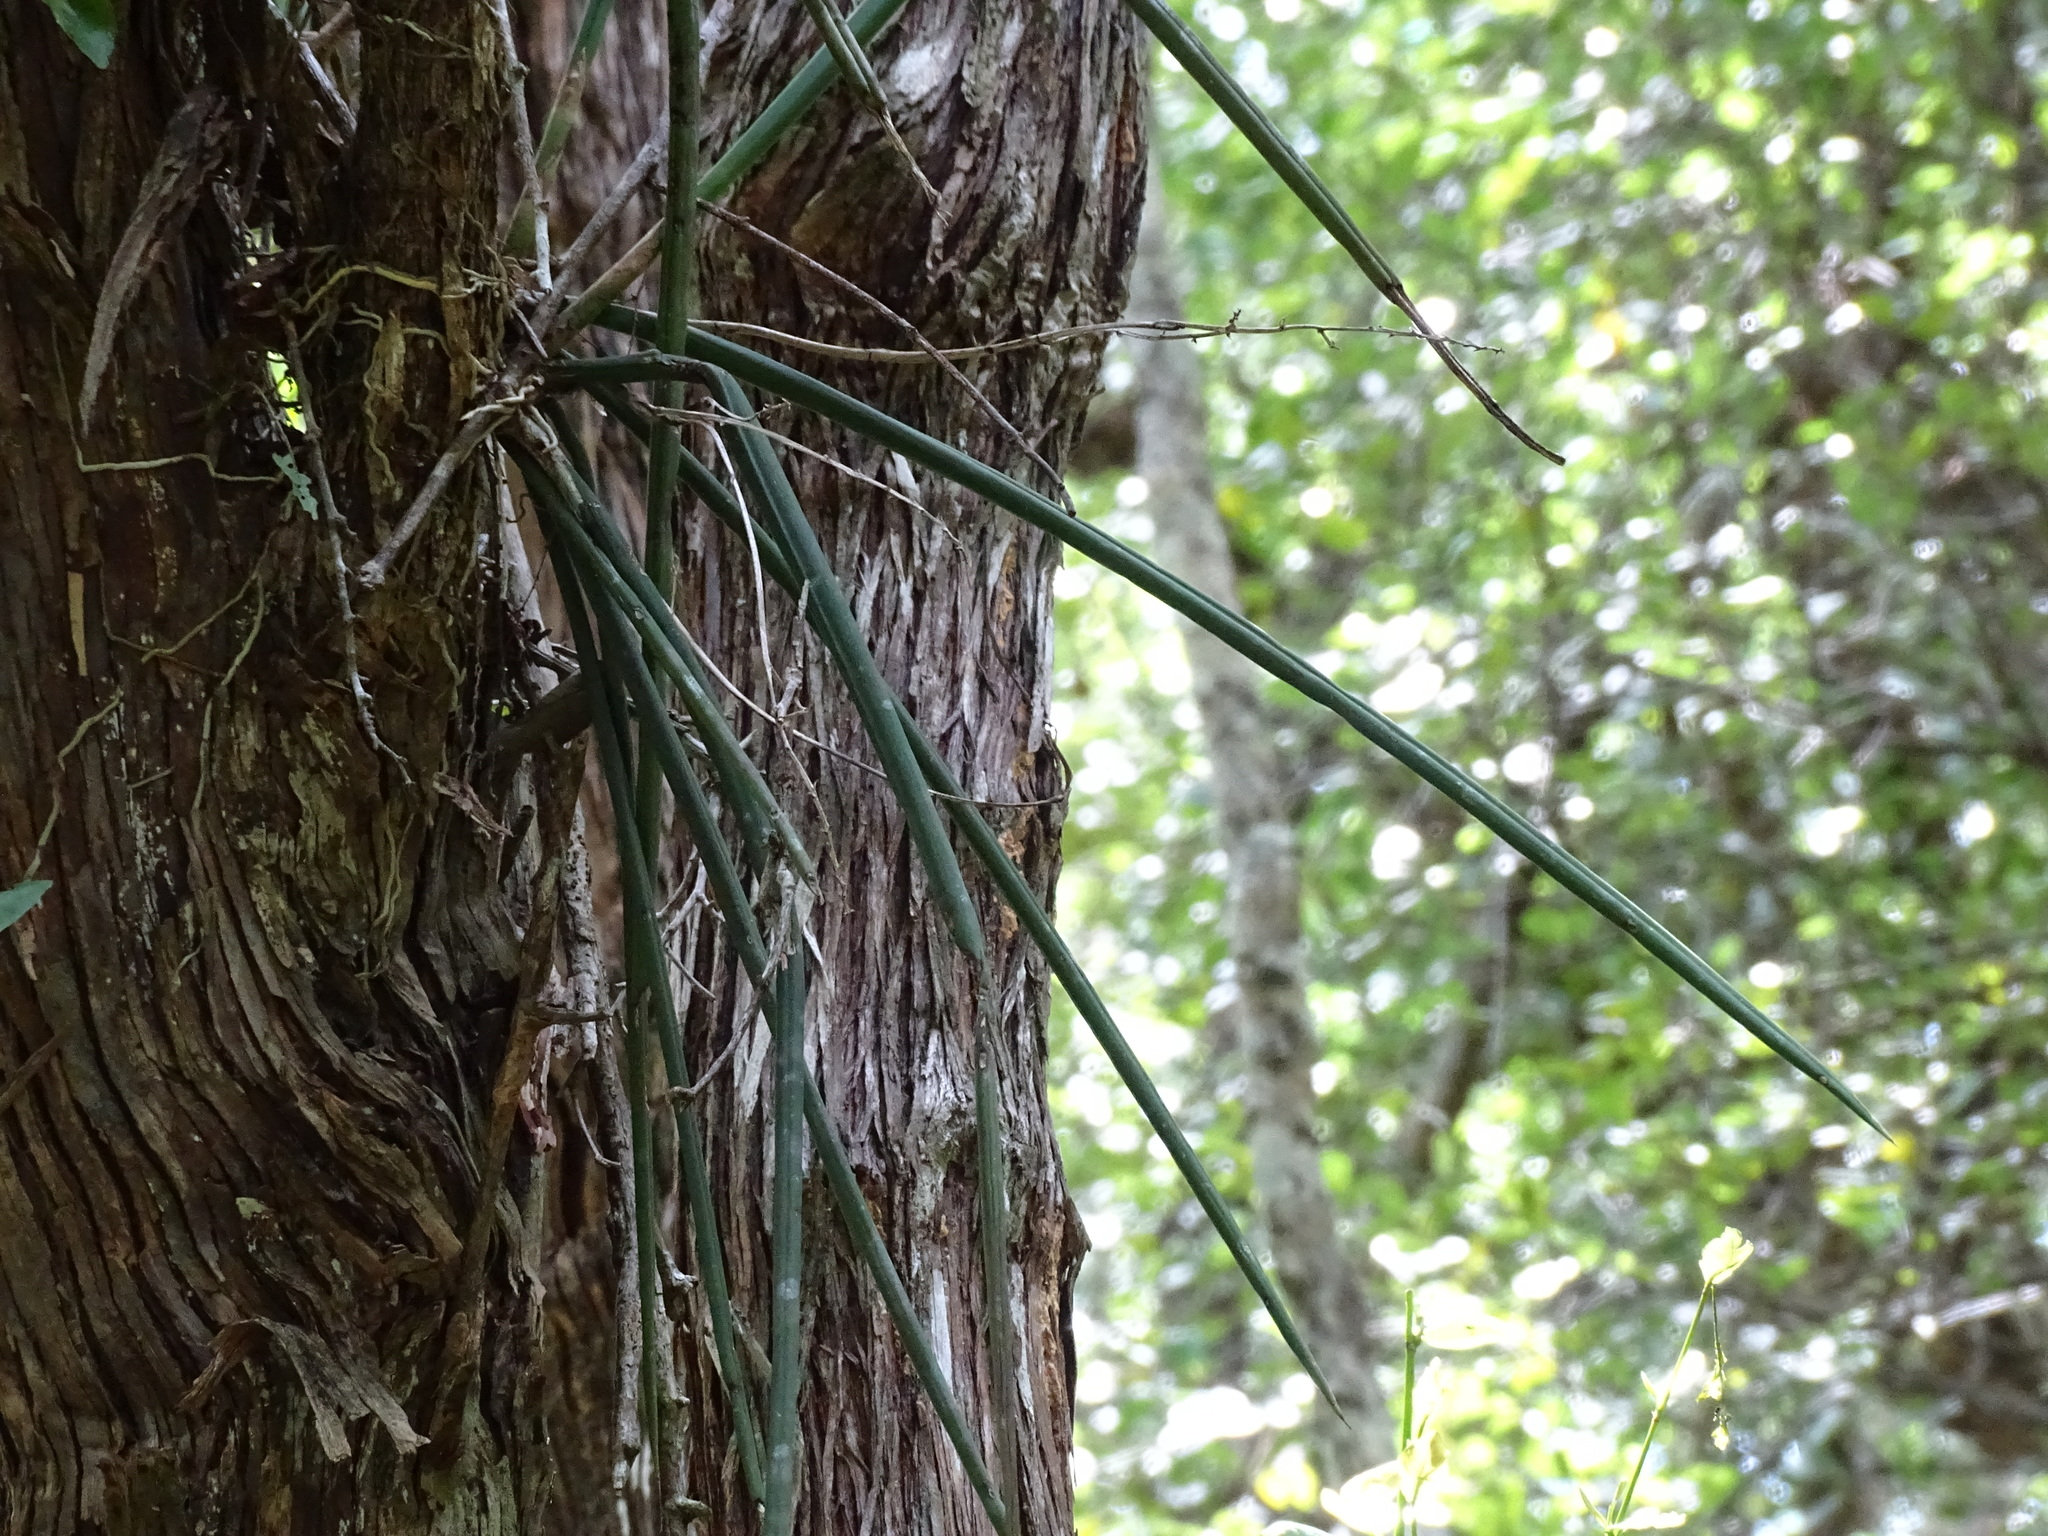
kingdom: Plantae
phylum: Tracheophyta
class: Liliopsida
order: Asparagales
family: Orchidaceae
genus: Trichocentrum
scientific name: Trichocentrum yucatanense
